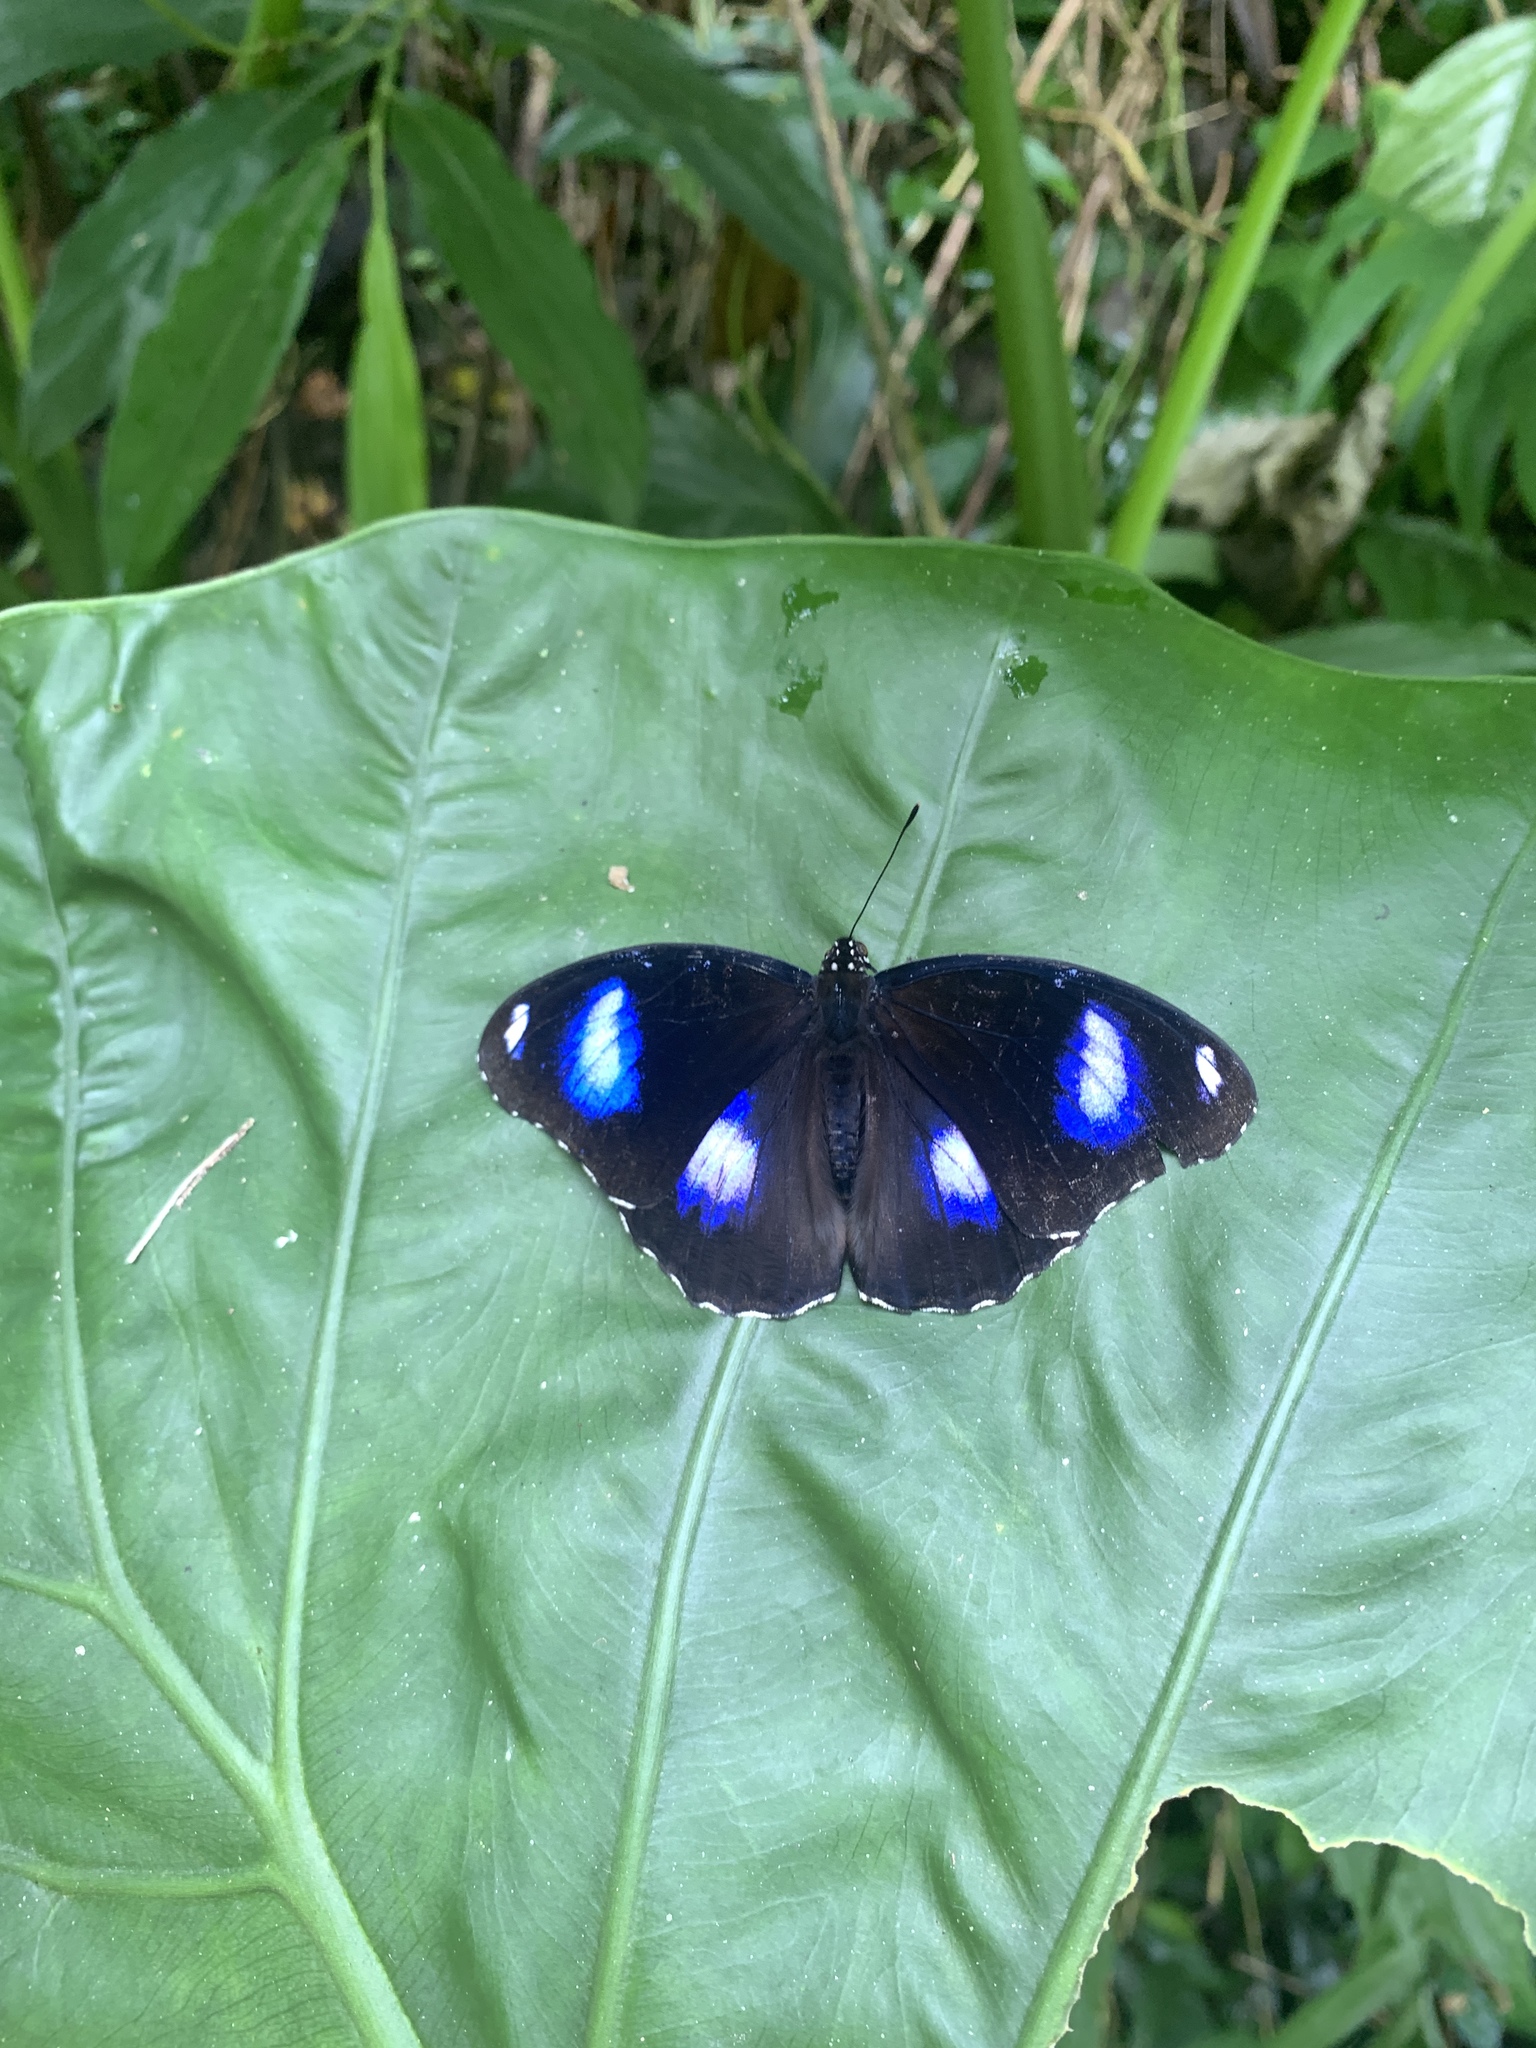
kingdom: Animalia
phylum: Arthropoda
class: Insecta
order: Lepidoptera
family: Nymphalidae
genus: Hypolimnas
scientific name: Hypolimnas bolina
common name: Great eggfly
